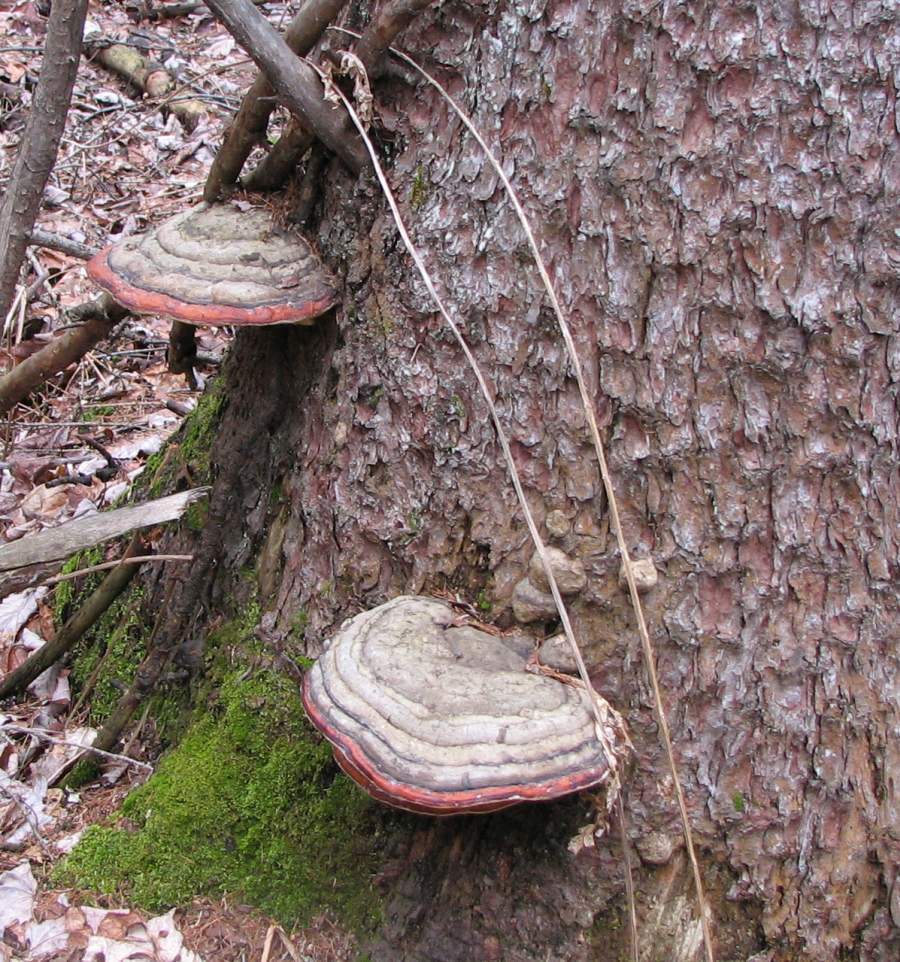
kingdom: Fungi
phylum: Basidiomycota
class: Agaricomycetes
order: Polyporales
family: Fomitopsidaceae
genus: Fomitopsis
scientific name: Fomitopsis mounceae
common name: Northern red belt
